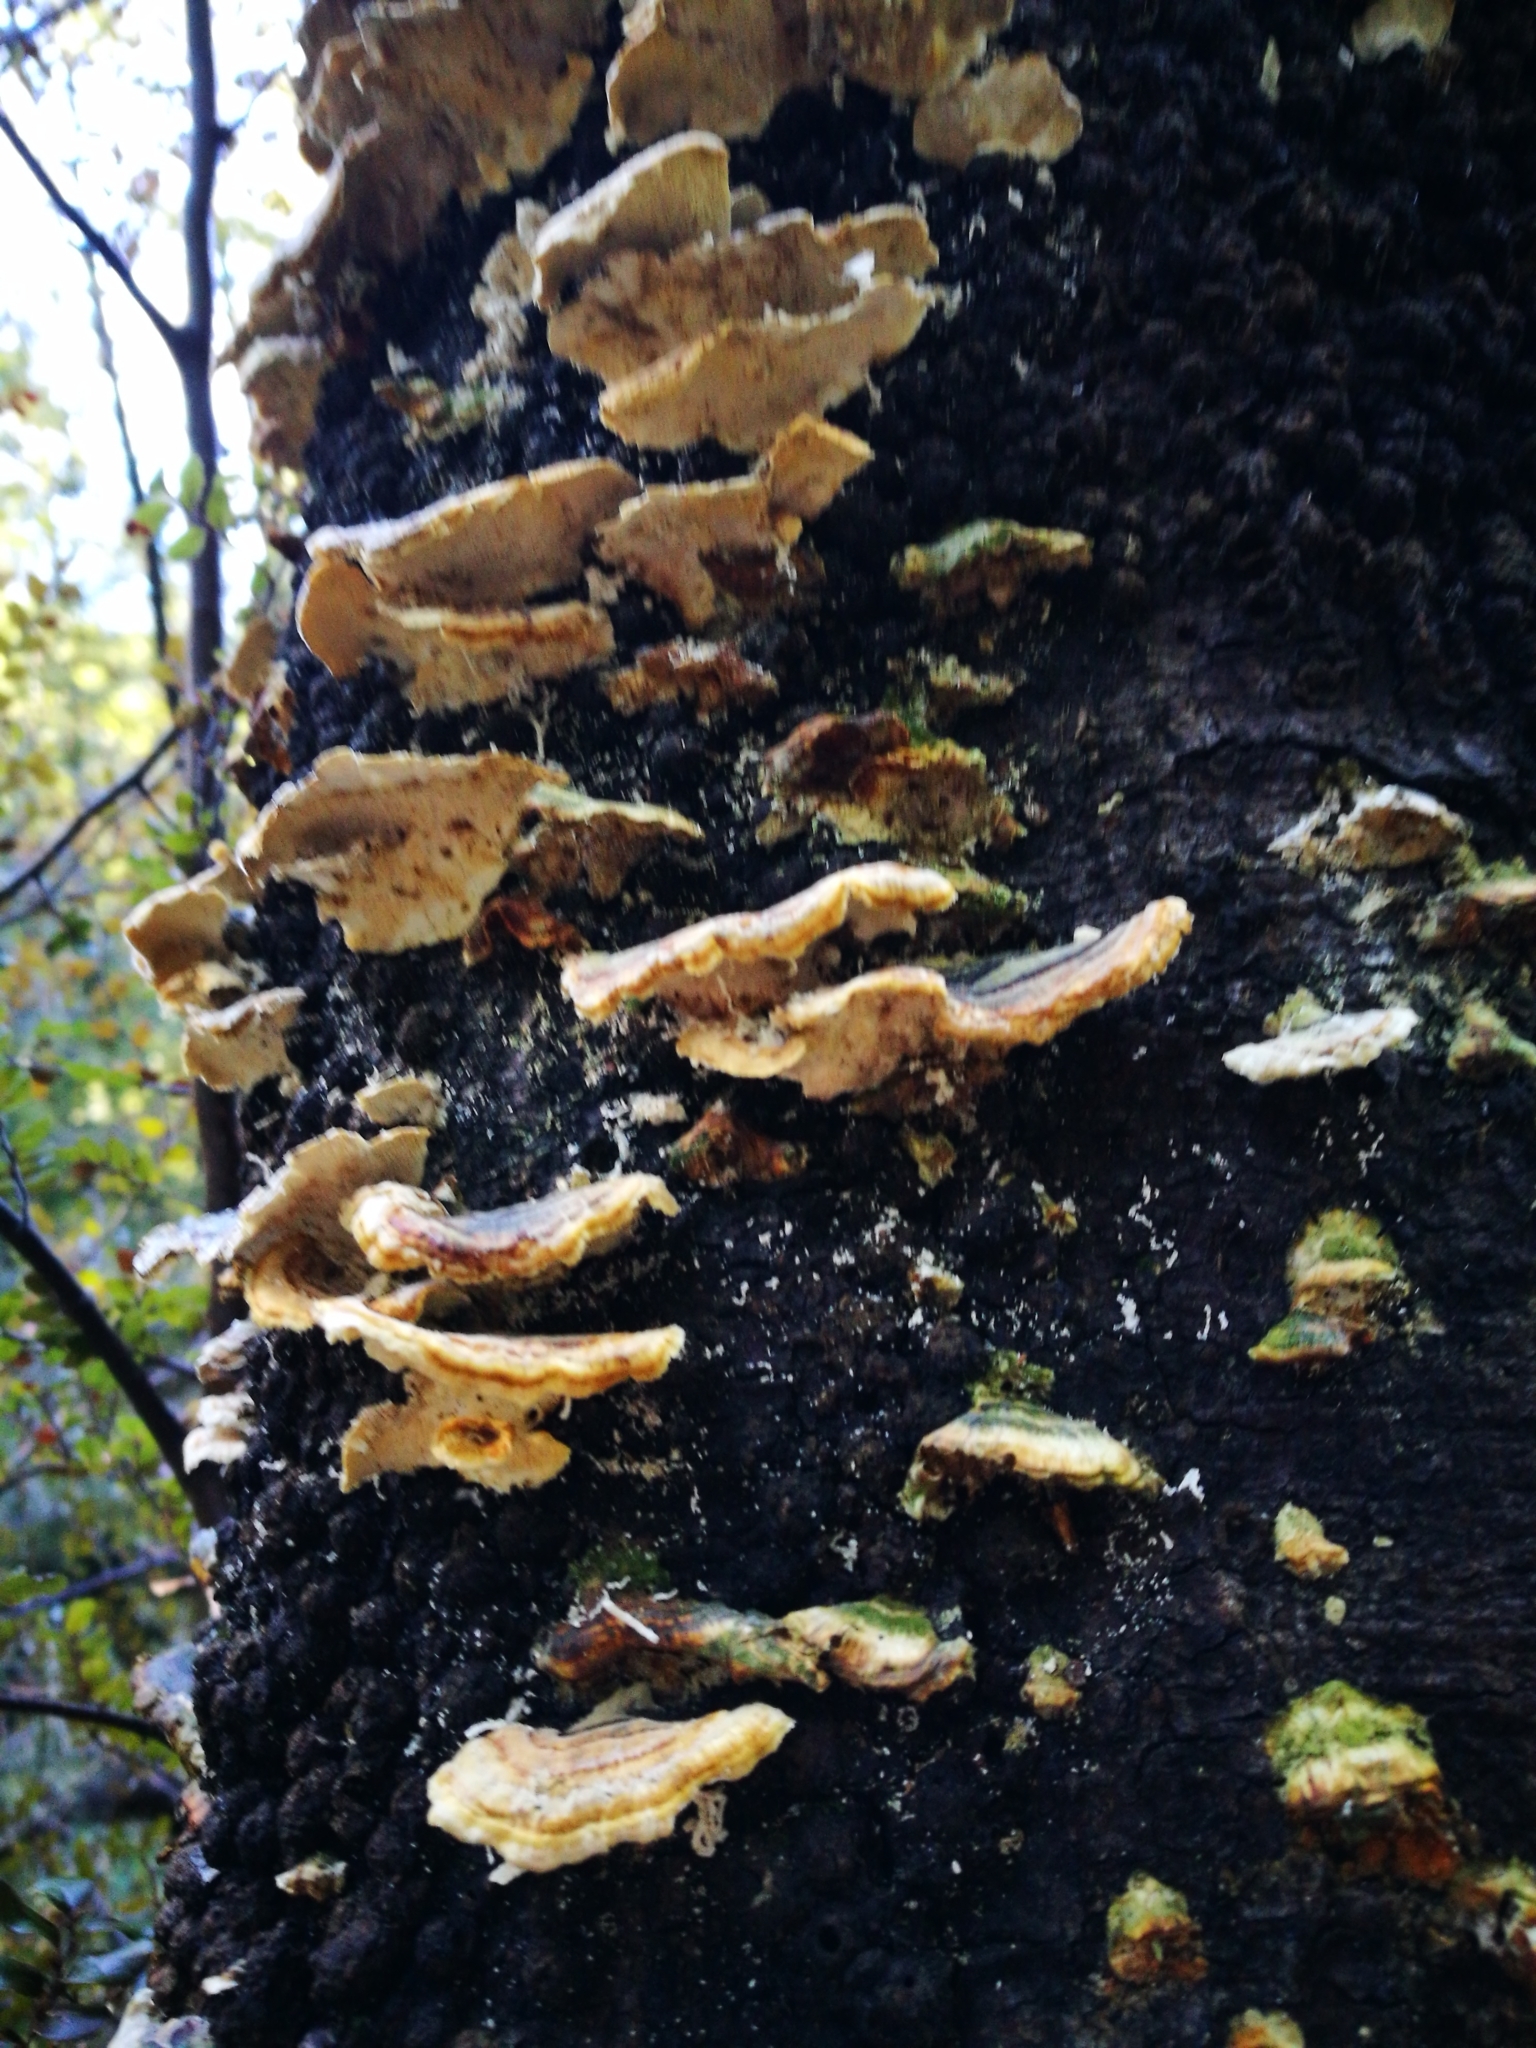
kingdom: Fungi
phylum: Basidiomycota
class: Agaricomycetes
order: Polyporales
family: Polyporaceae
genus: Trametes
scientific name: Trametes versicolor
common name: Turkeytail
